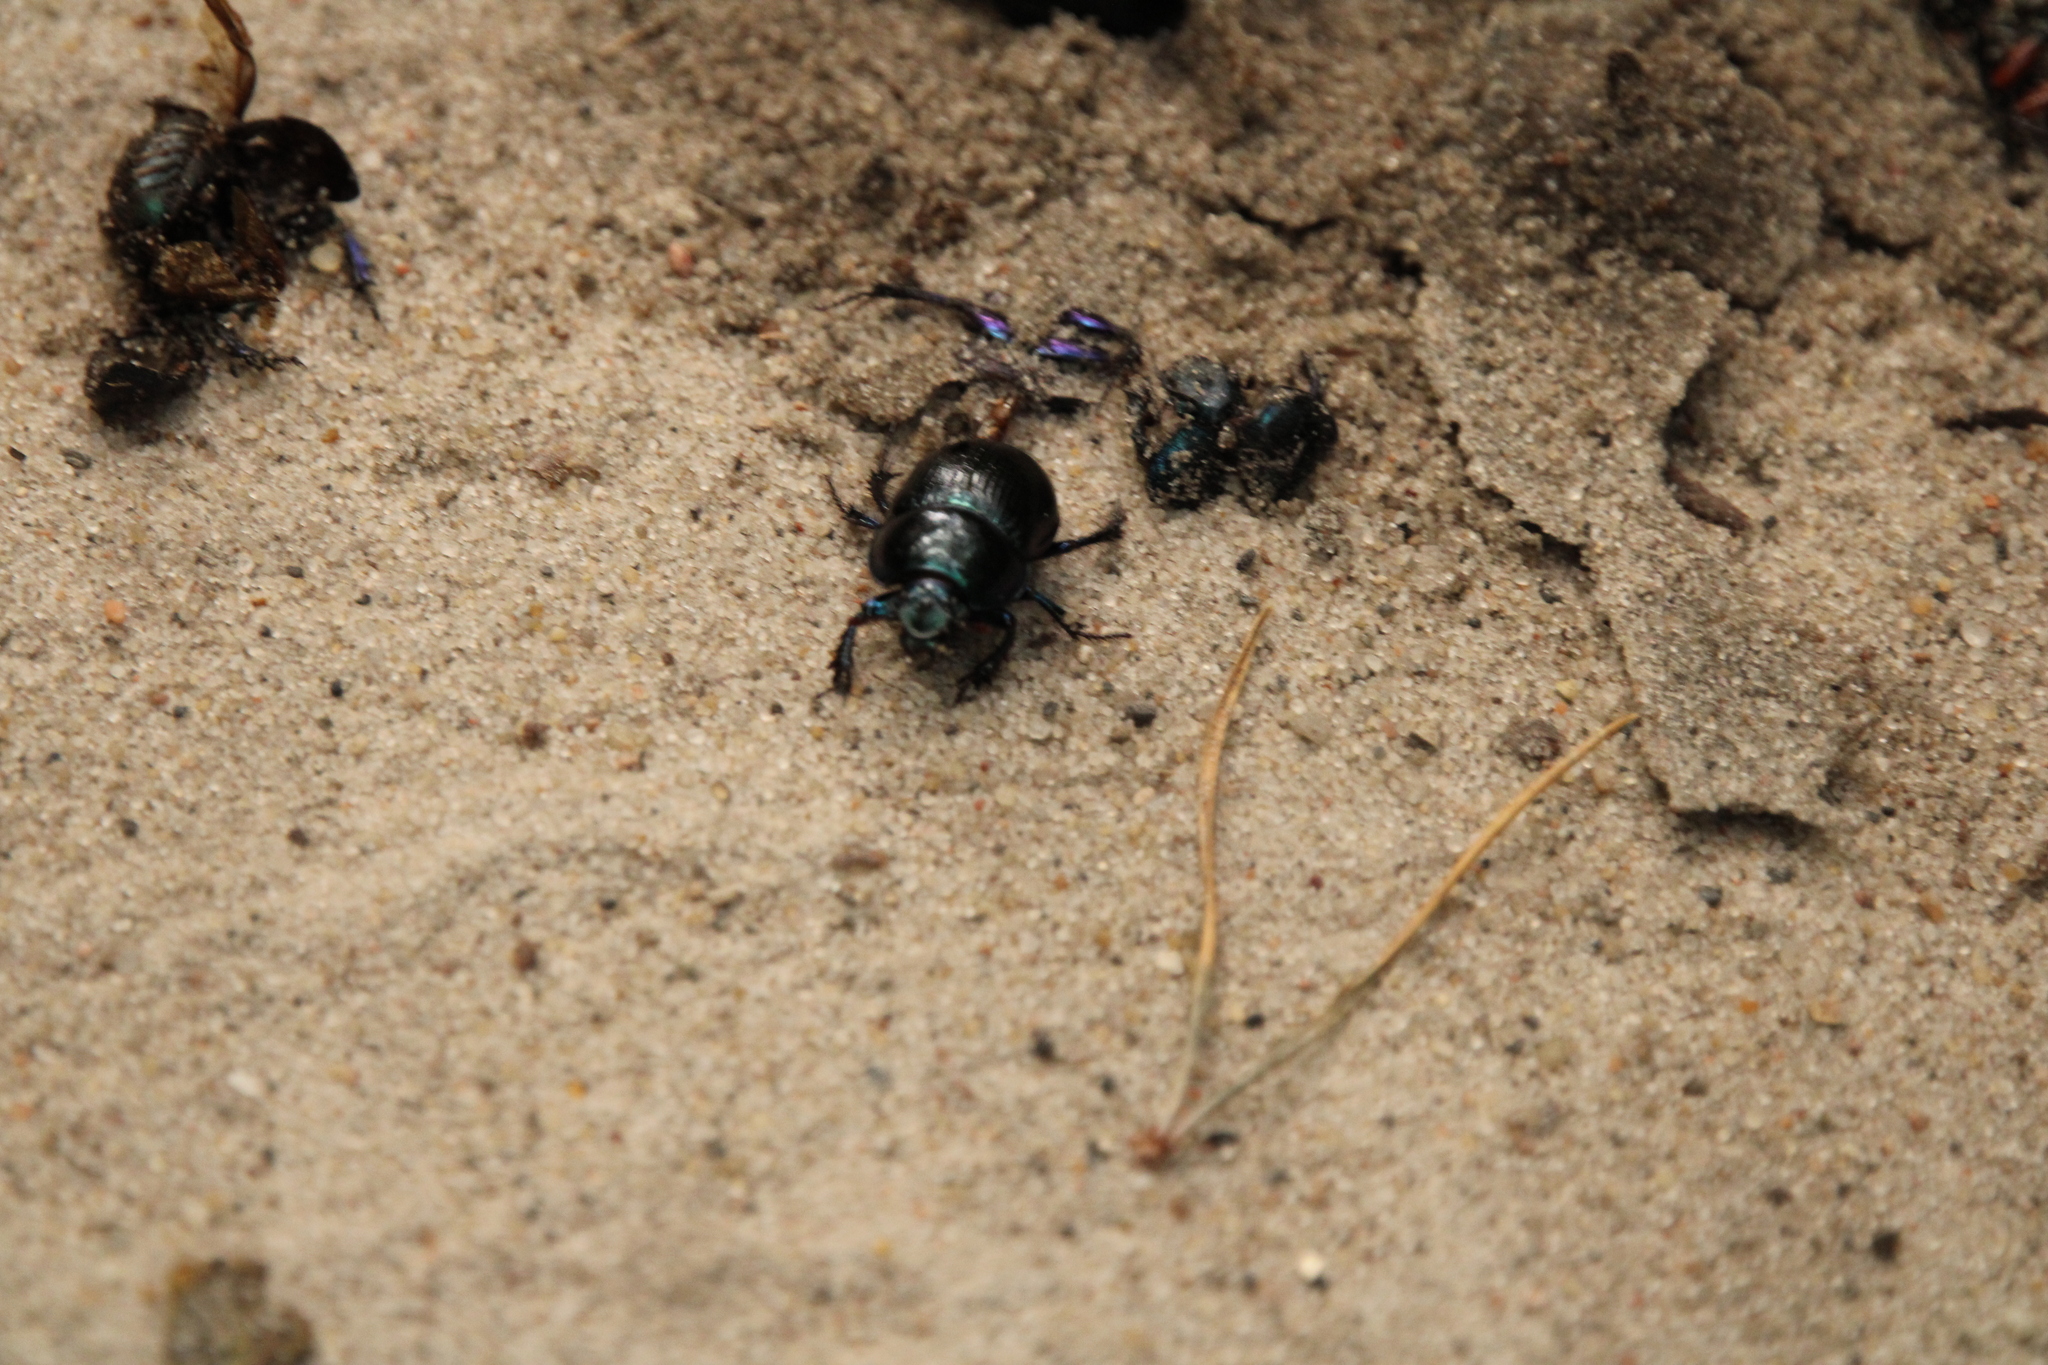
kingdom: Animalia
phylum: Arthropoda
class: Insecta
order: Coleoptera
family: Geotrupidae
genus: Anoplotrupes
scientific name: Anoplotrupes stercorosus
